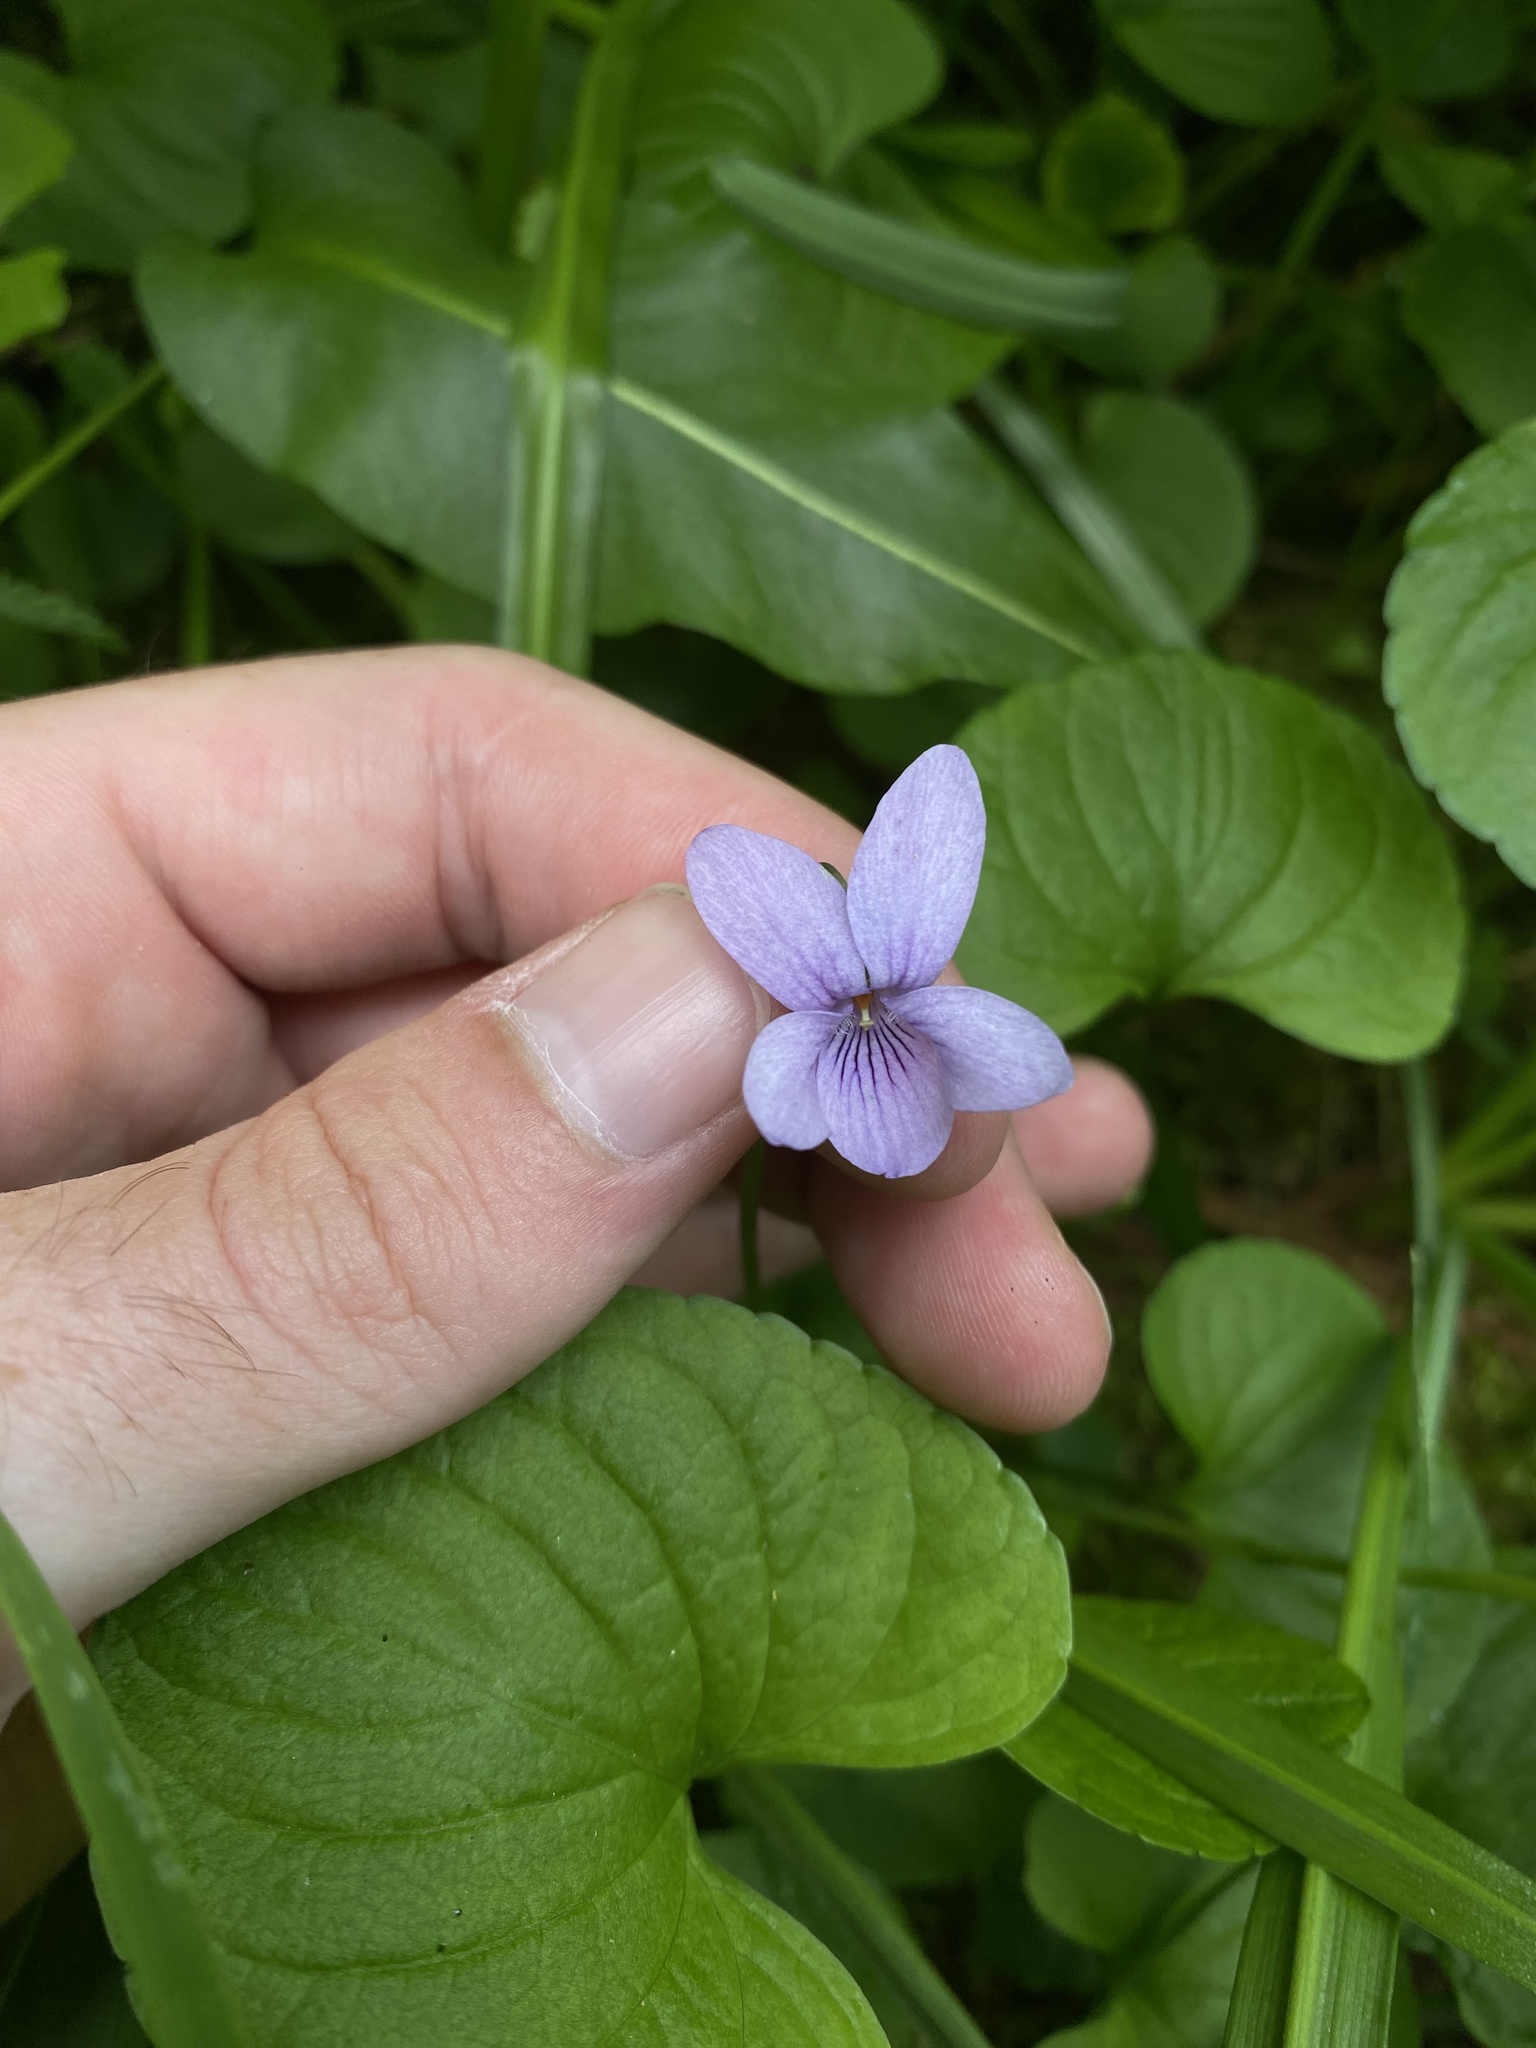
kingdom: Plantae
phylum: Tracheophyta
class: Magnoliopsida
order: Malpighiales
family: Violaceae
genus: Viola
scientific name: Viola palustris
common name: Marsh violet
